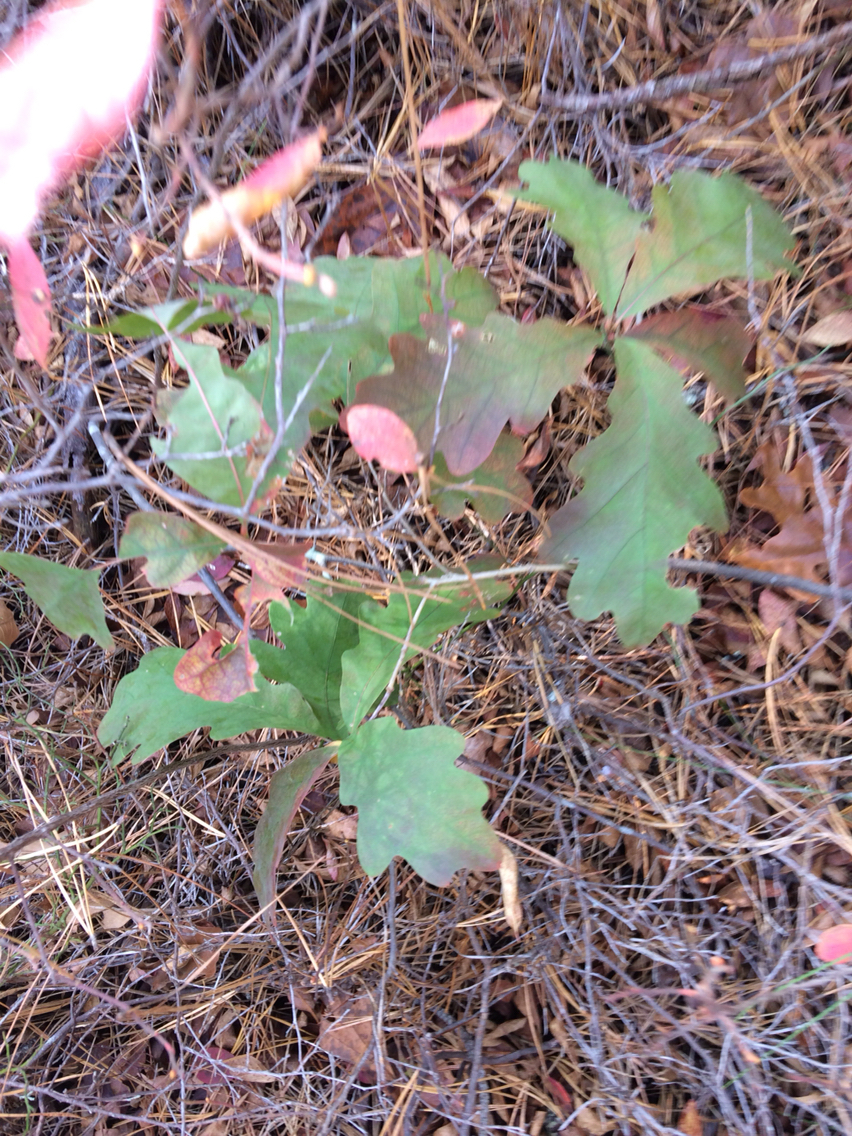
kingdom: Plantae
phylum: Tracheophyta
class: Magnoliopsida
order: Fagales
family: Fagaceae
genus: Quercus
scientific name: Quercus alba
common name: White oak
